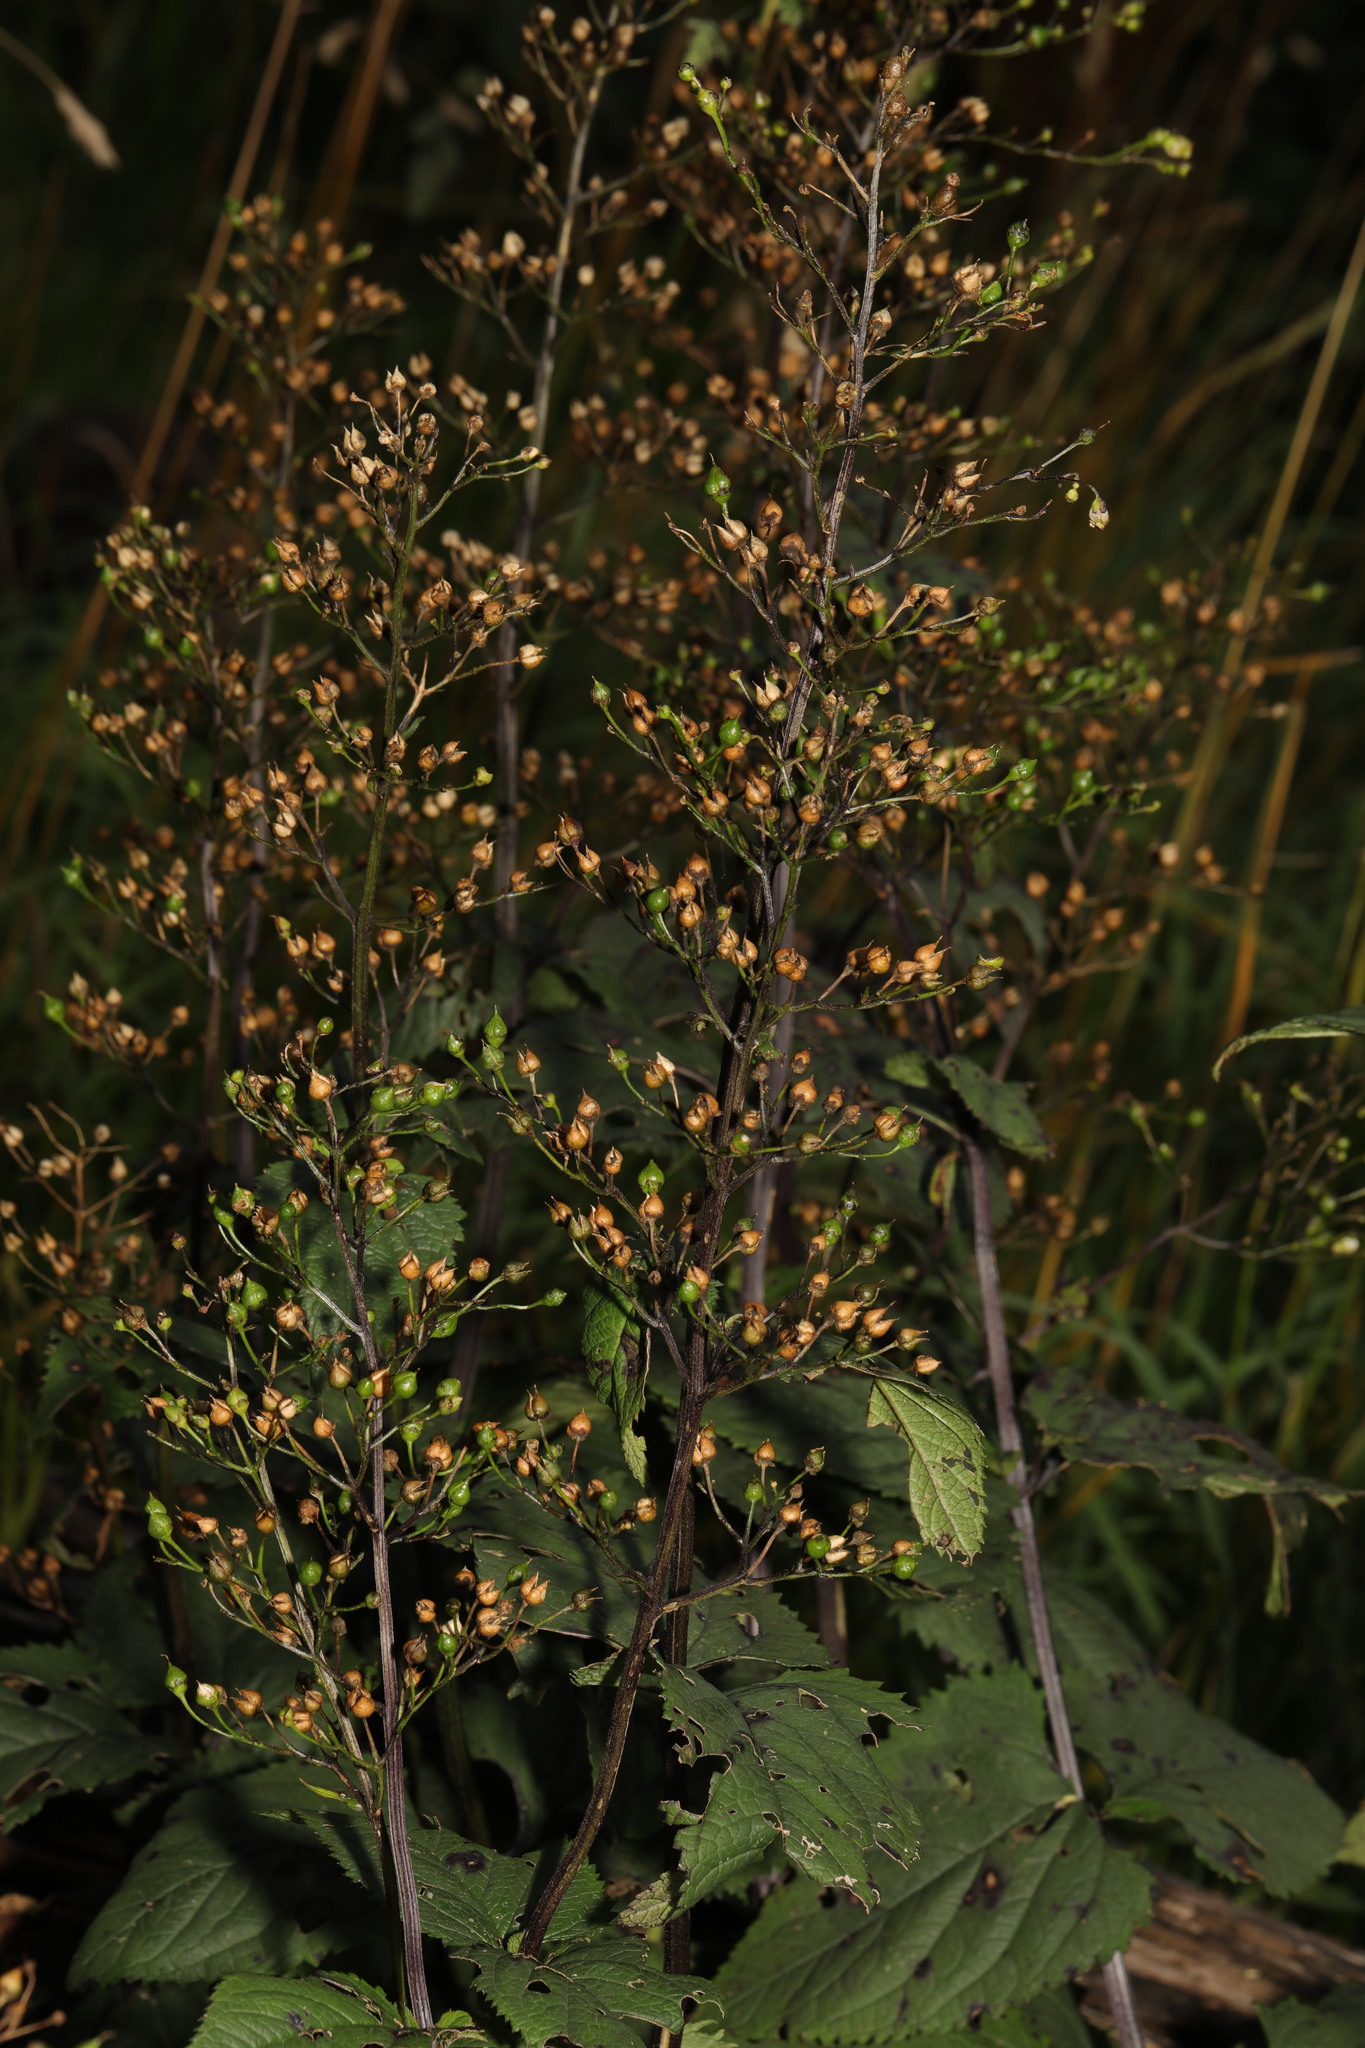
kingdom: Plantae
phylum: Tracheophyta
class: Magnoliopsida
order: Lamiales
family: Scrophulariaceae
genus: Scrophularia
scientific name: Scrophularia nodosa
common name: Common figwort
